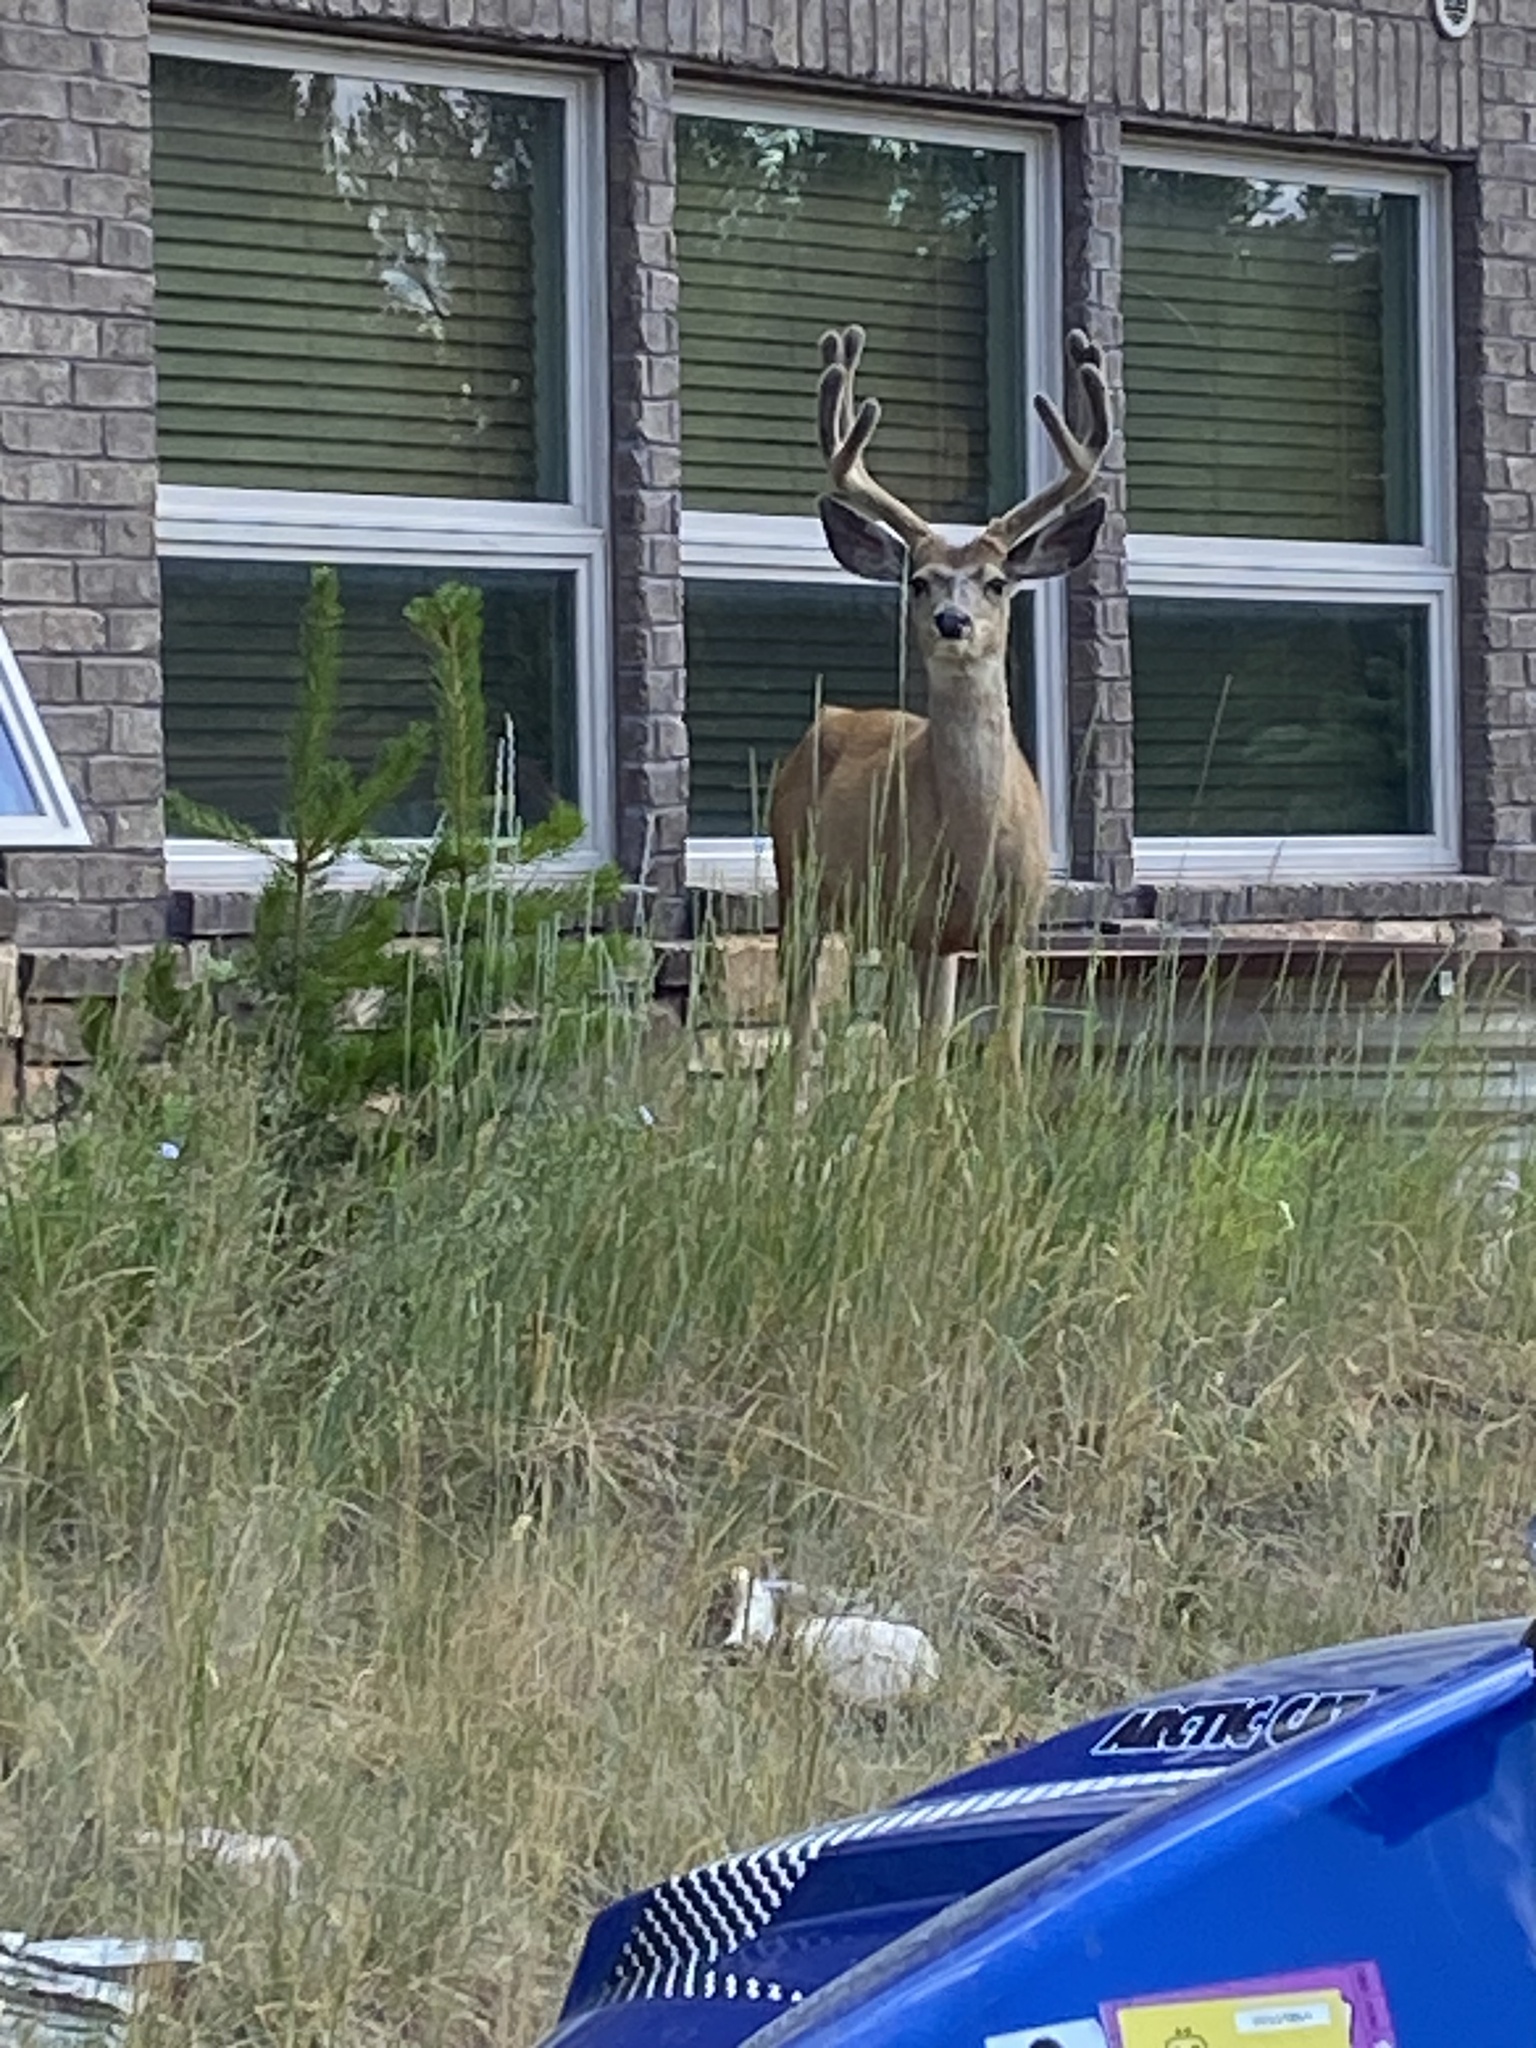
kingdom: Animalia
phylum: Chordata
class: Mammalia
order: Artiodactyla
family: Cervidae
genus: Odocoileus
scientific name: Odocoileus hemionus
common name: Mule deer
